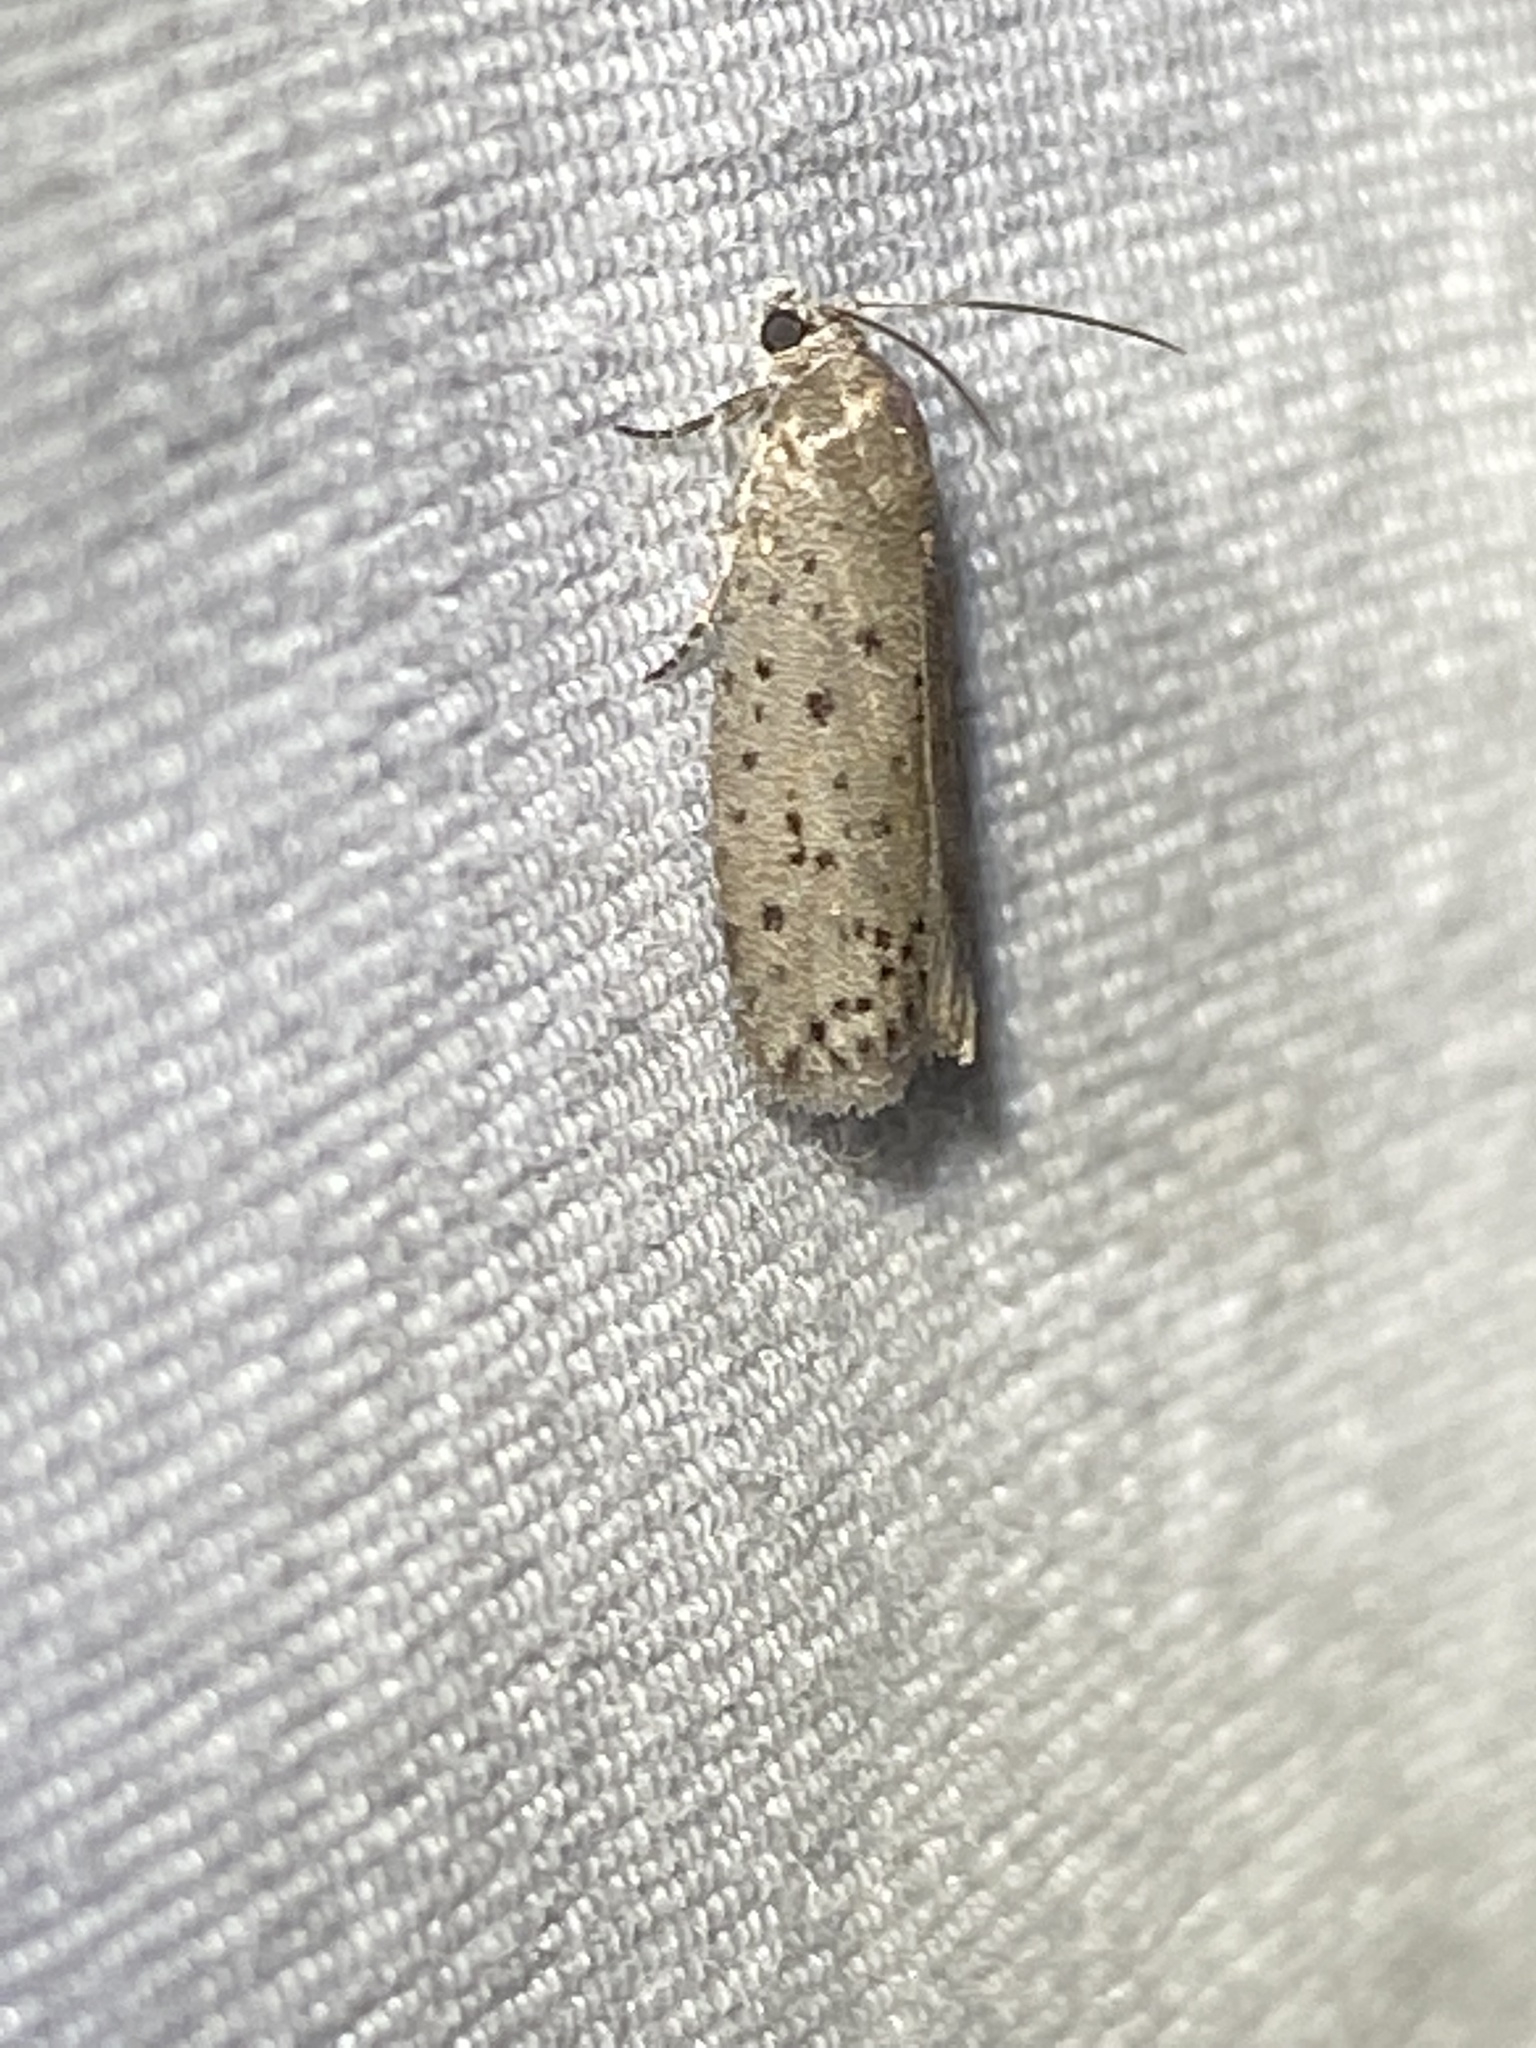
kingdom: Animalia
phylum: Arthropoda
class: Insecta
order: Lepidoptera
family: Galacticidae
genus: Homadaula
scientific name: Homadaula anisocentra
